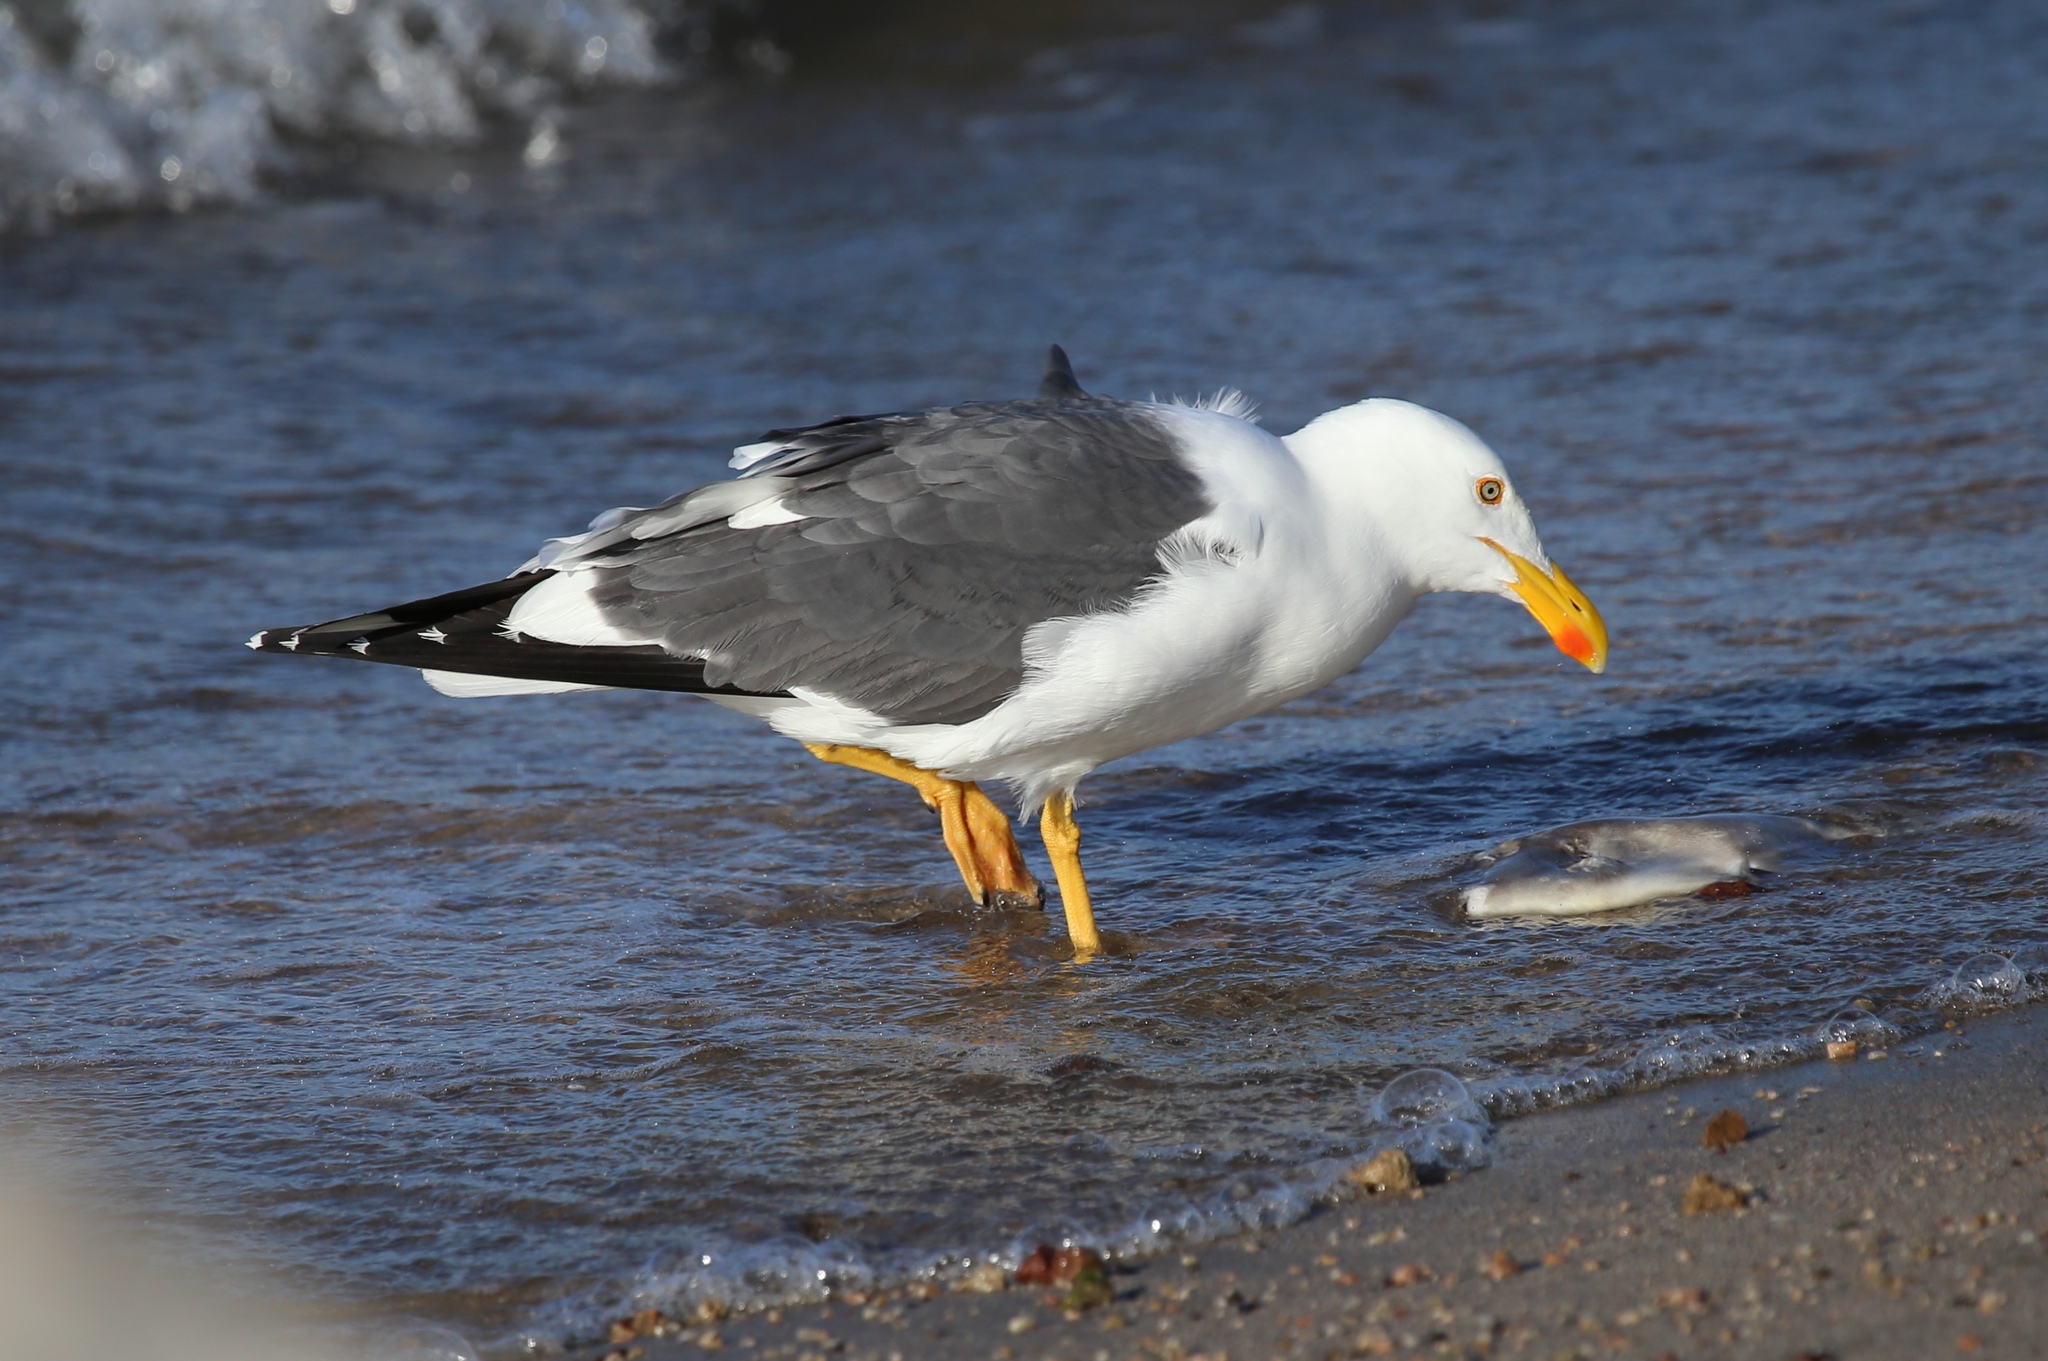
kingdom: Animalia
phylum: Chordata
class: Aves
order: Charadriiformes
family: Laridae
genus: Larus
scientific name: Larus livens
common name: Yellow-footed gull
